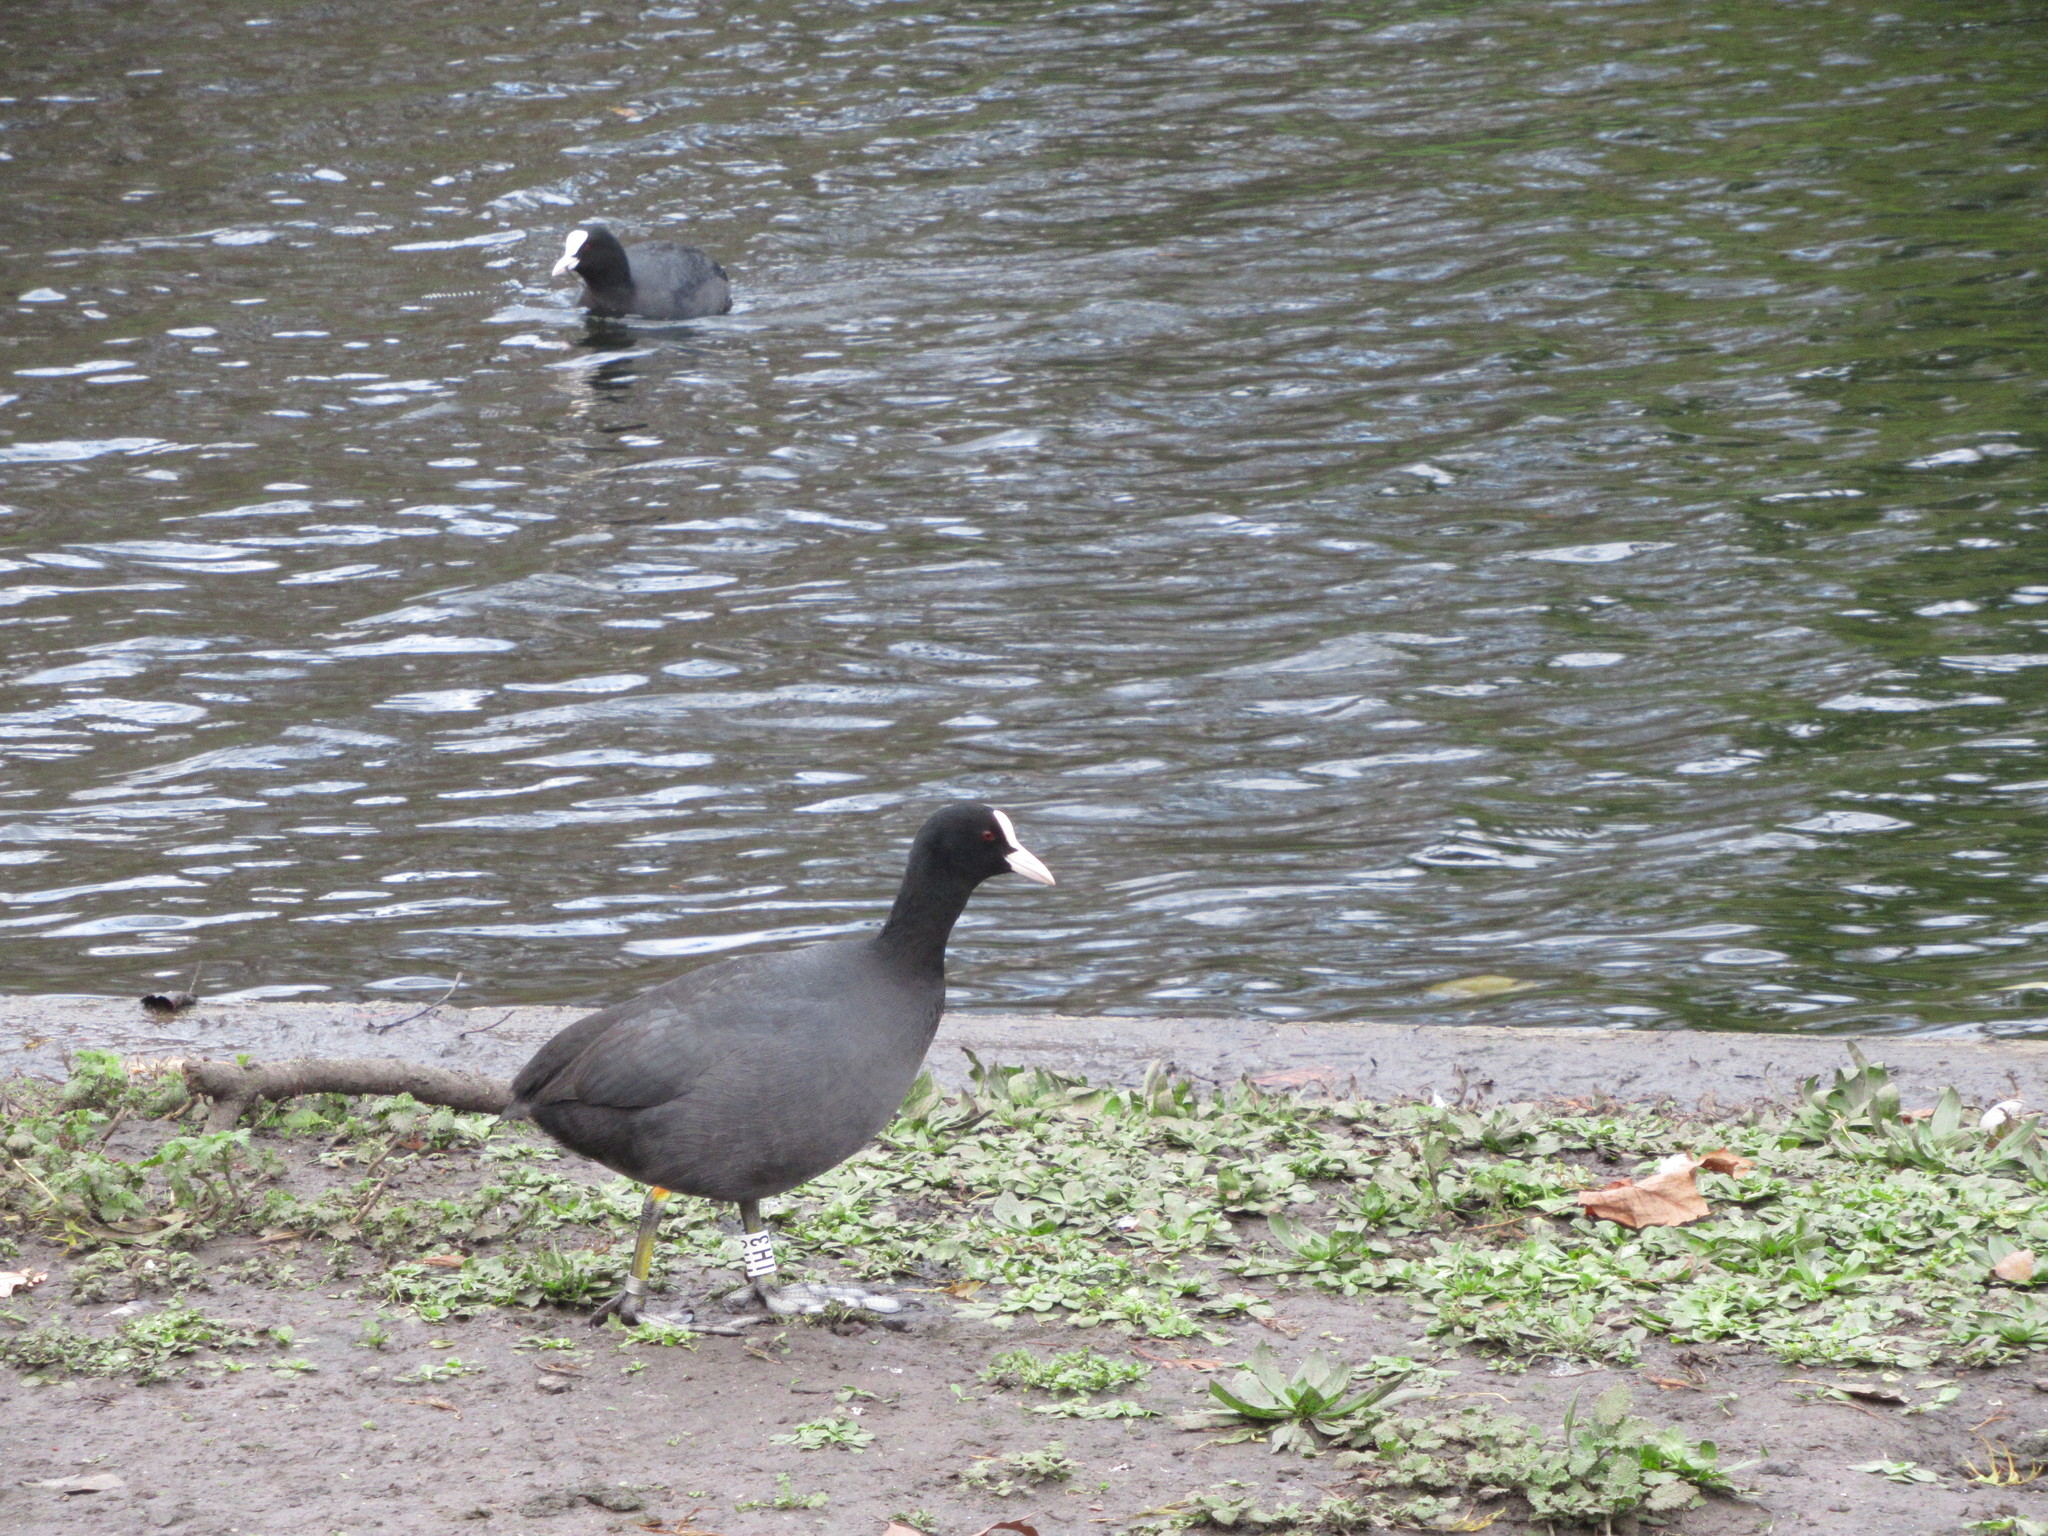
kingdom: Animalia
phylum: Chordata
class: Aves
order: Gruiformes
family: Rallidae
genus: Fulica
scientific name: Fulica atra
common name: Eurasian coot
